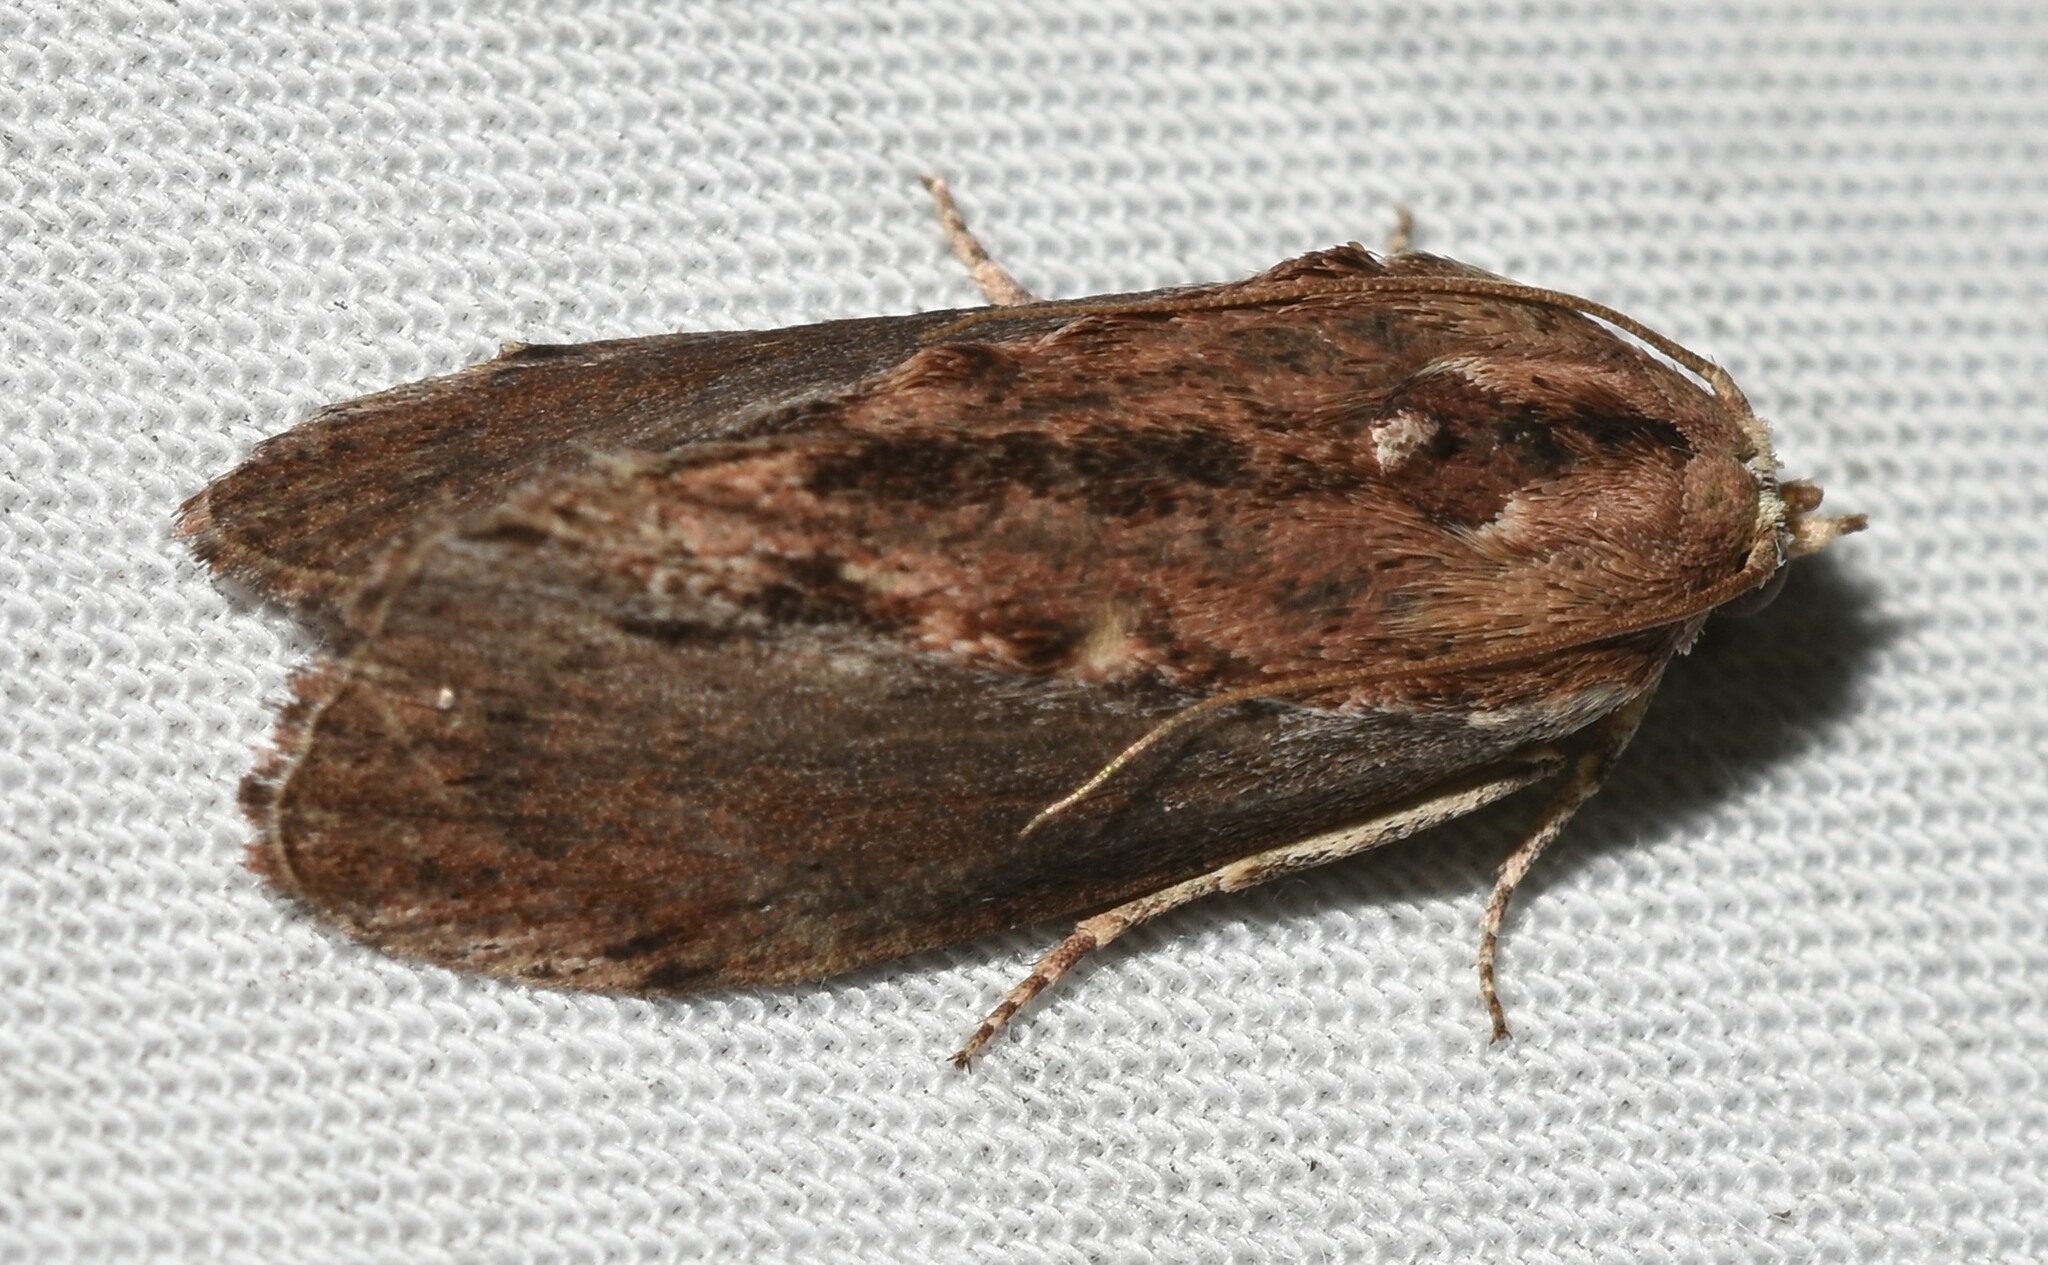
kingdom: Animalia
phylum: Arthropoda
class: Insecta
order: Lepidoptera
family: Pyralidae
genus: Galleria
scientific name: Galleria mellonella
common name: Greater wax moth
